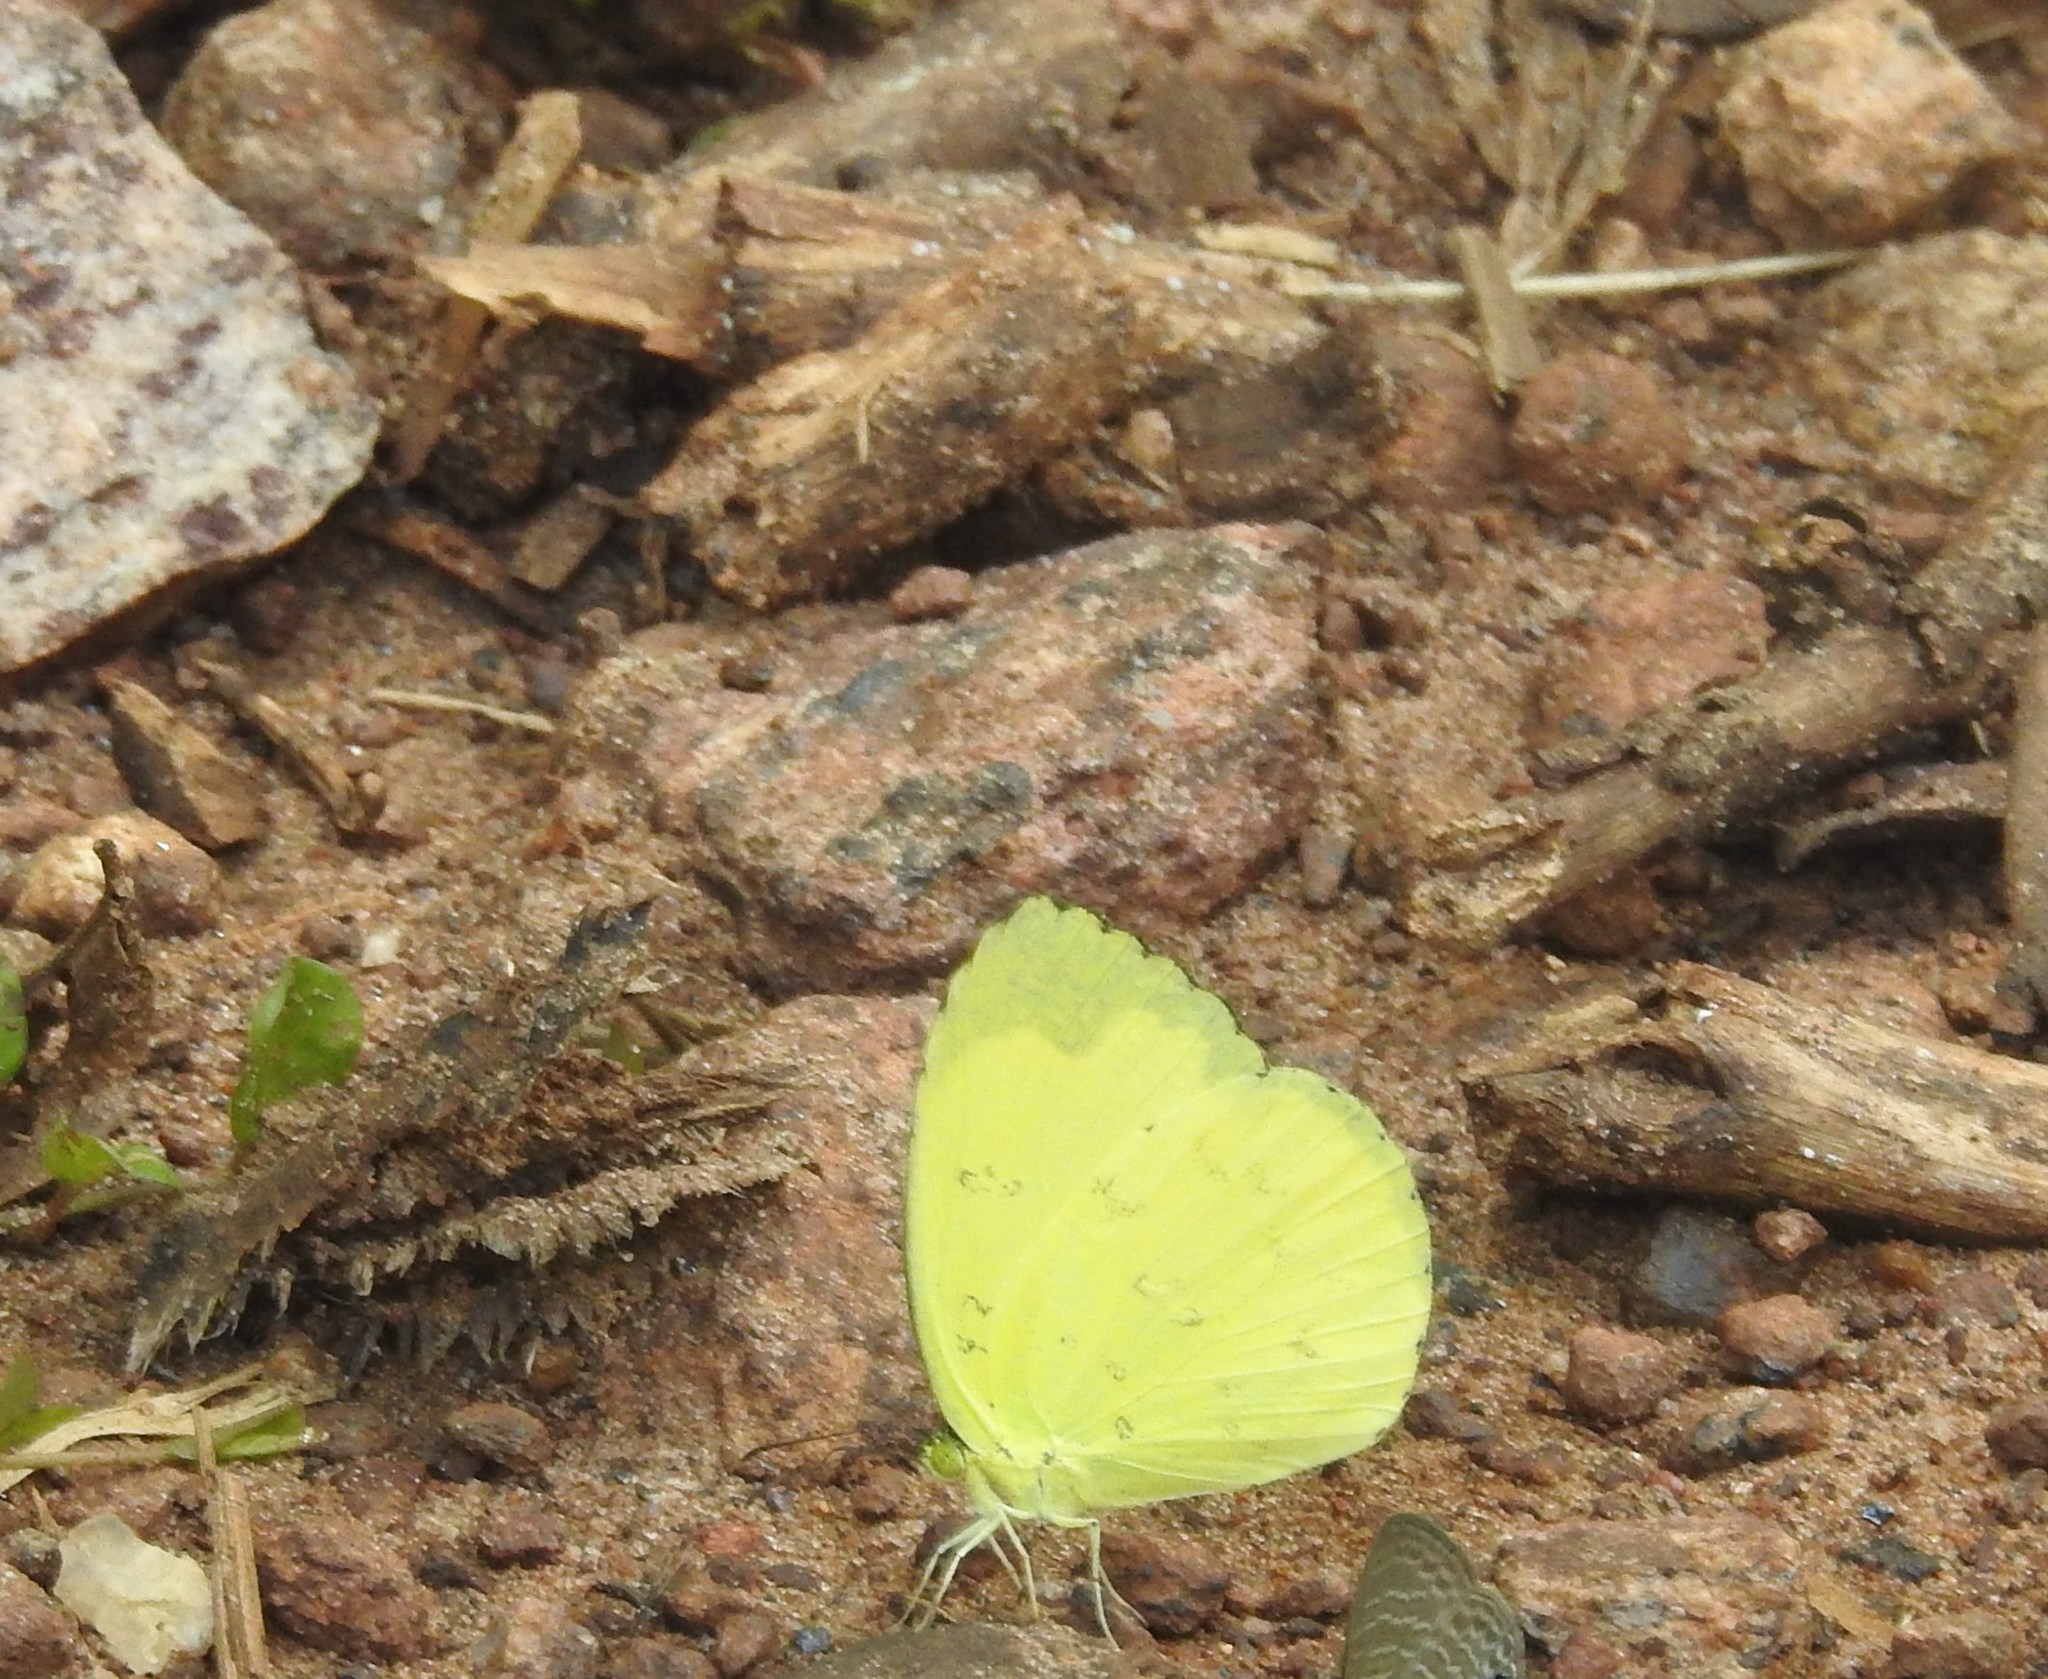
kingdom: Animalia
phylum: Arthropoda
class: Insecta
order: Lepidoptera
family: Pieridae
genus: Eurema
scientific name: Eurema hecabe
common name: Pale grass yellow
